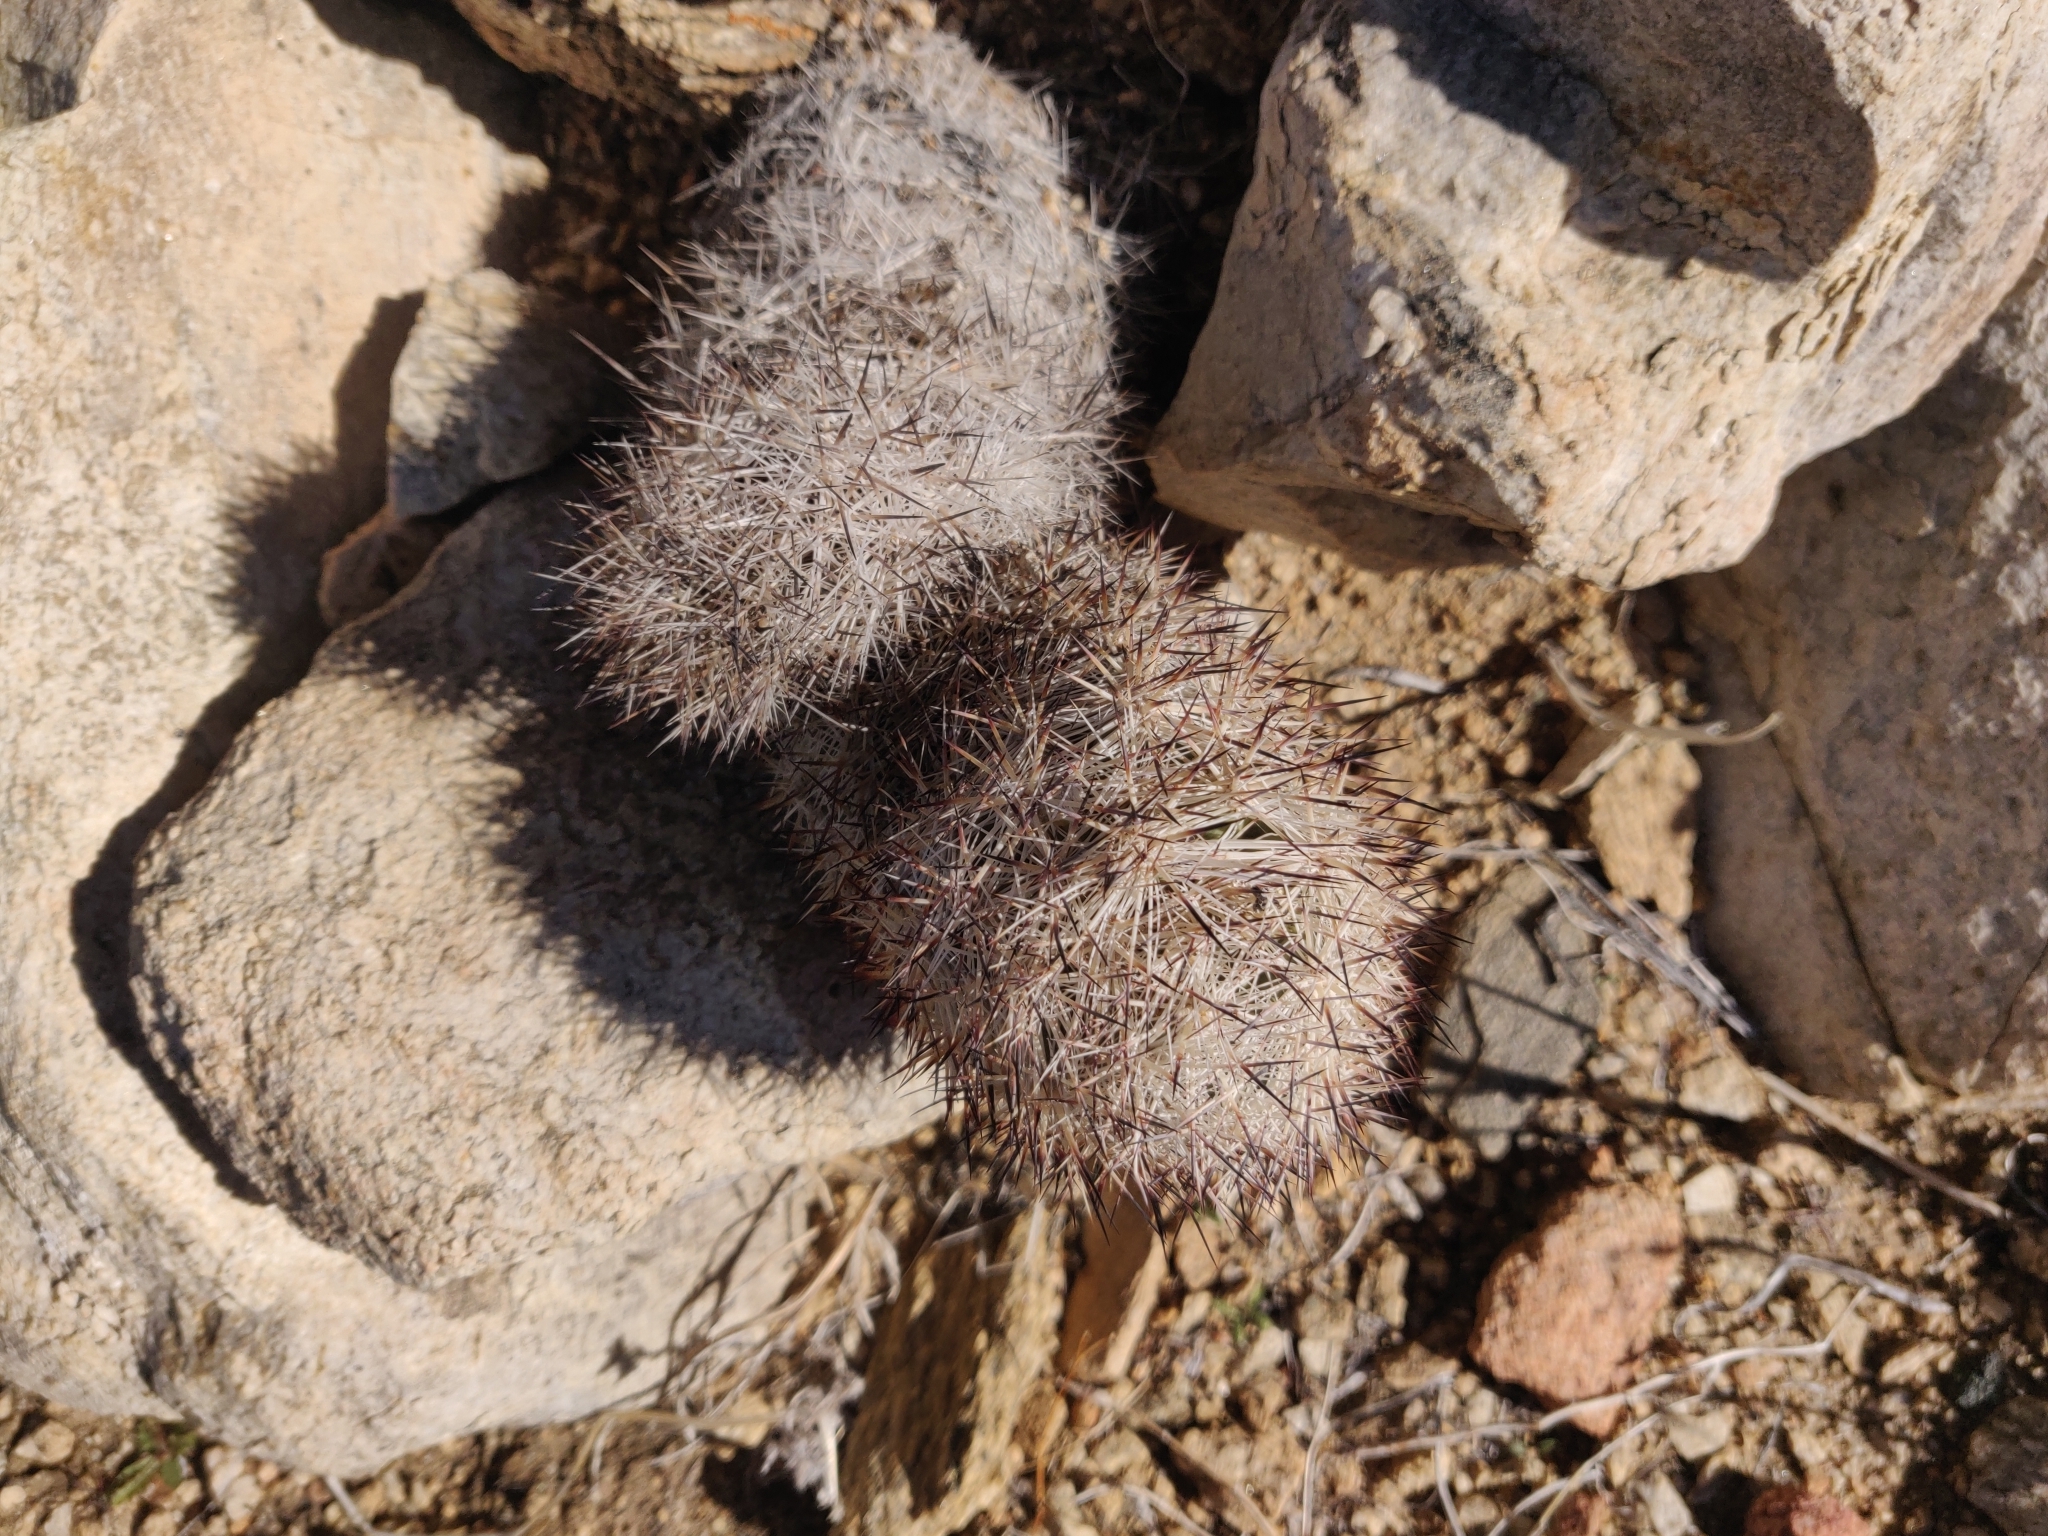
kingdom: Plantae
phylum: Tracheophyta
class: Magnoliopsida
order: Caryophyllales
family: Cactaceae
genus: Pelecyphora
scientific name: Pelecyphora alversonii
